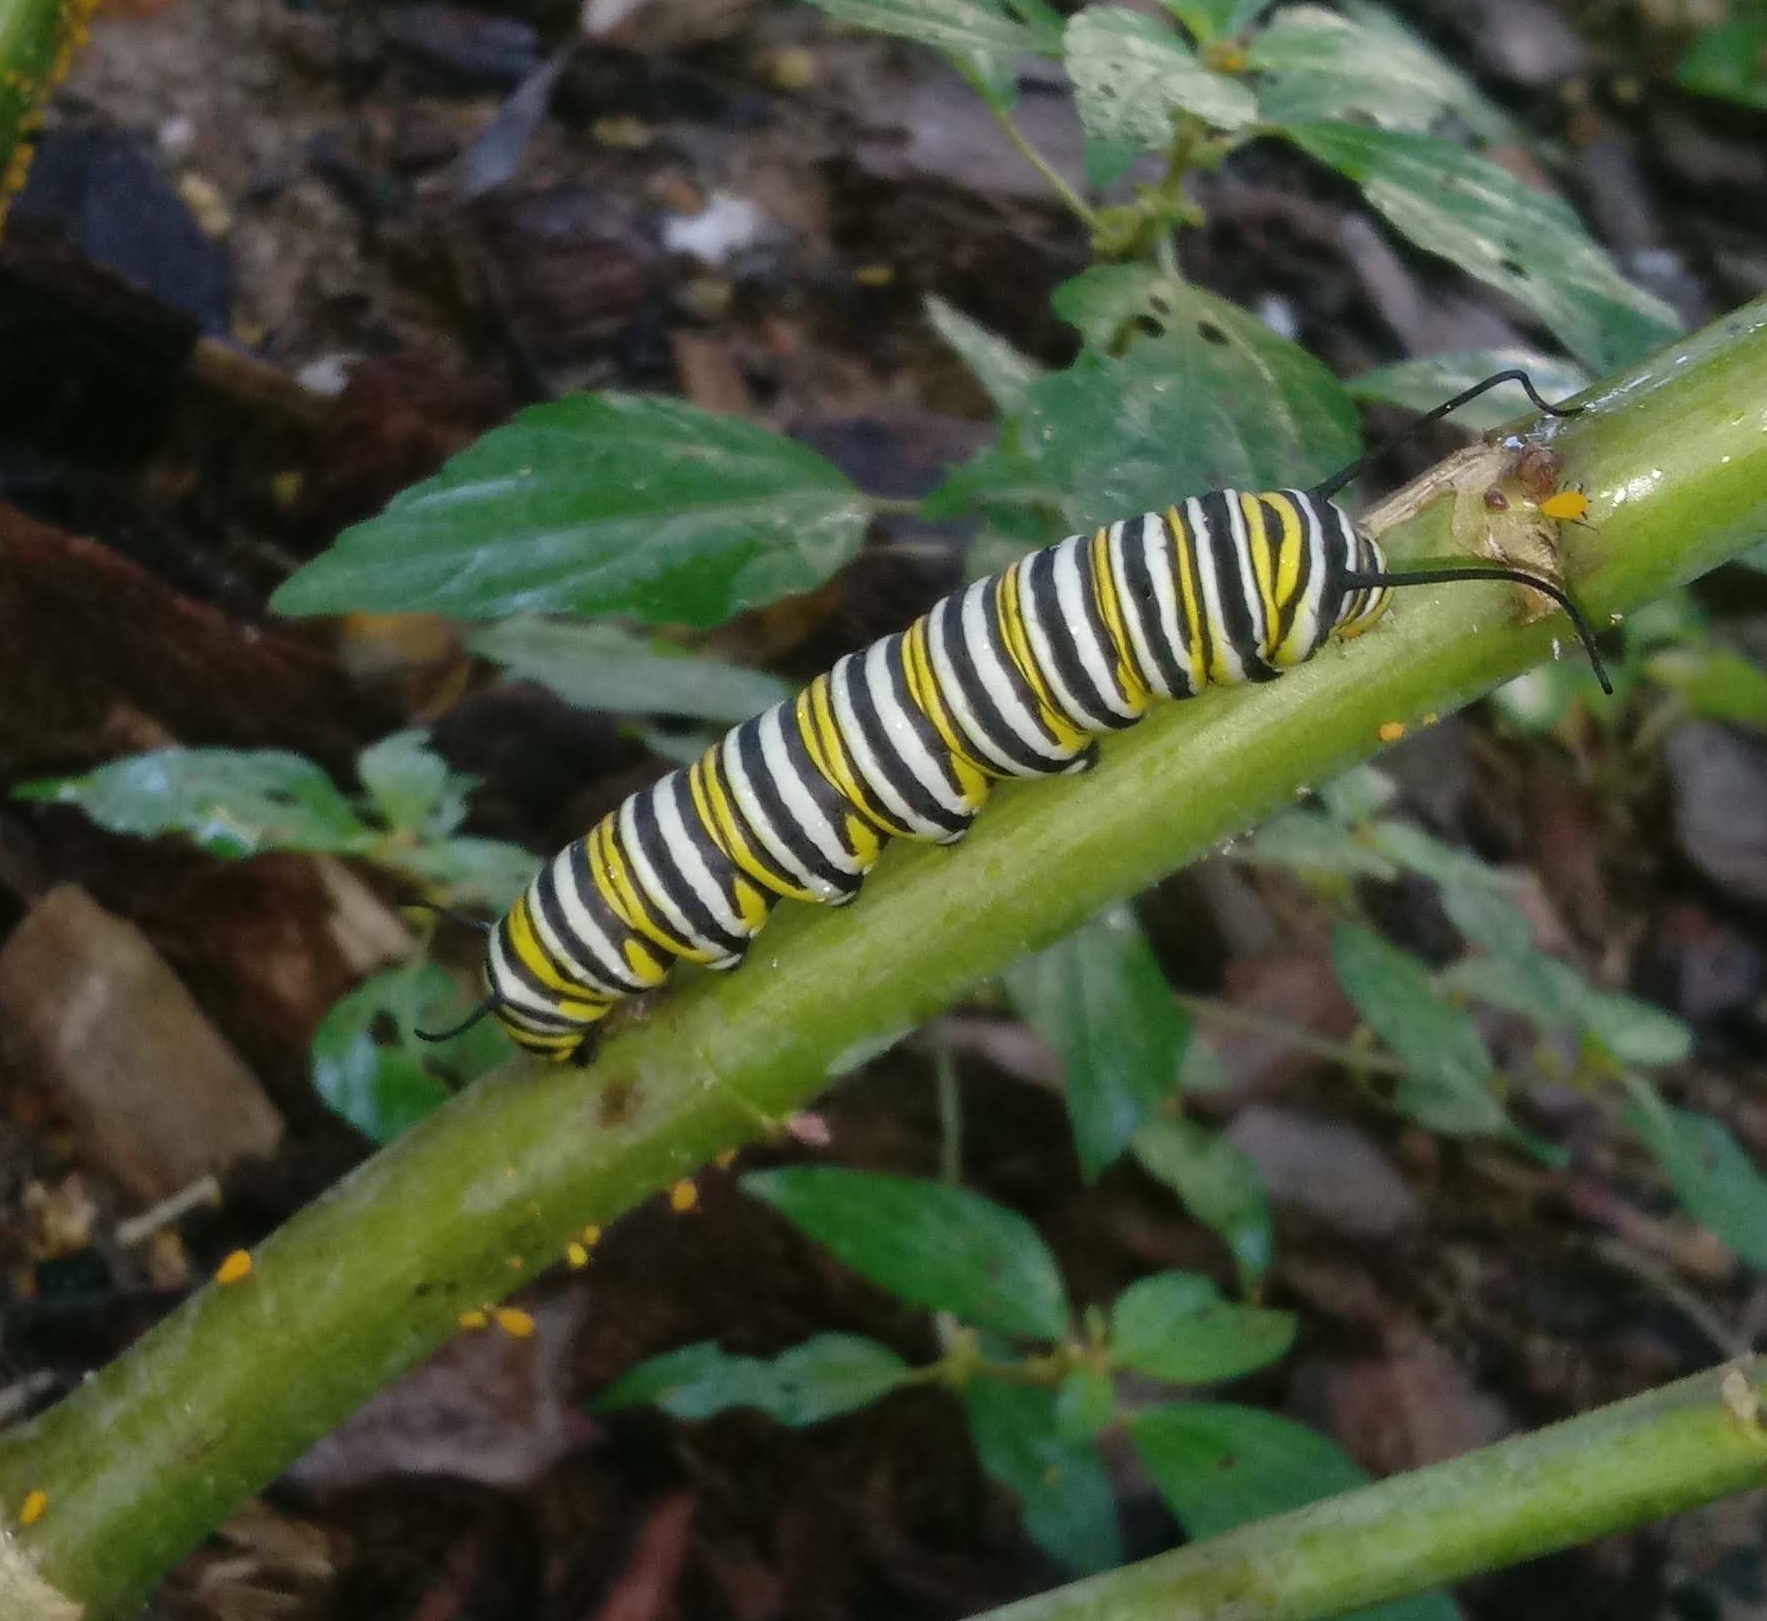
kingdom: Animalia
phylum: Arthropoda
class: Insecta
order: Lepidoptera
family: Nymphalidae
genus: Danaus
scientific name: Danaus plexippus
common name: Monarch
